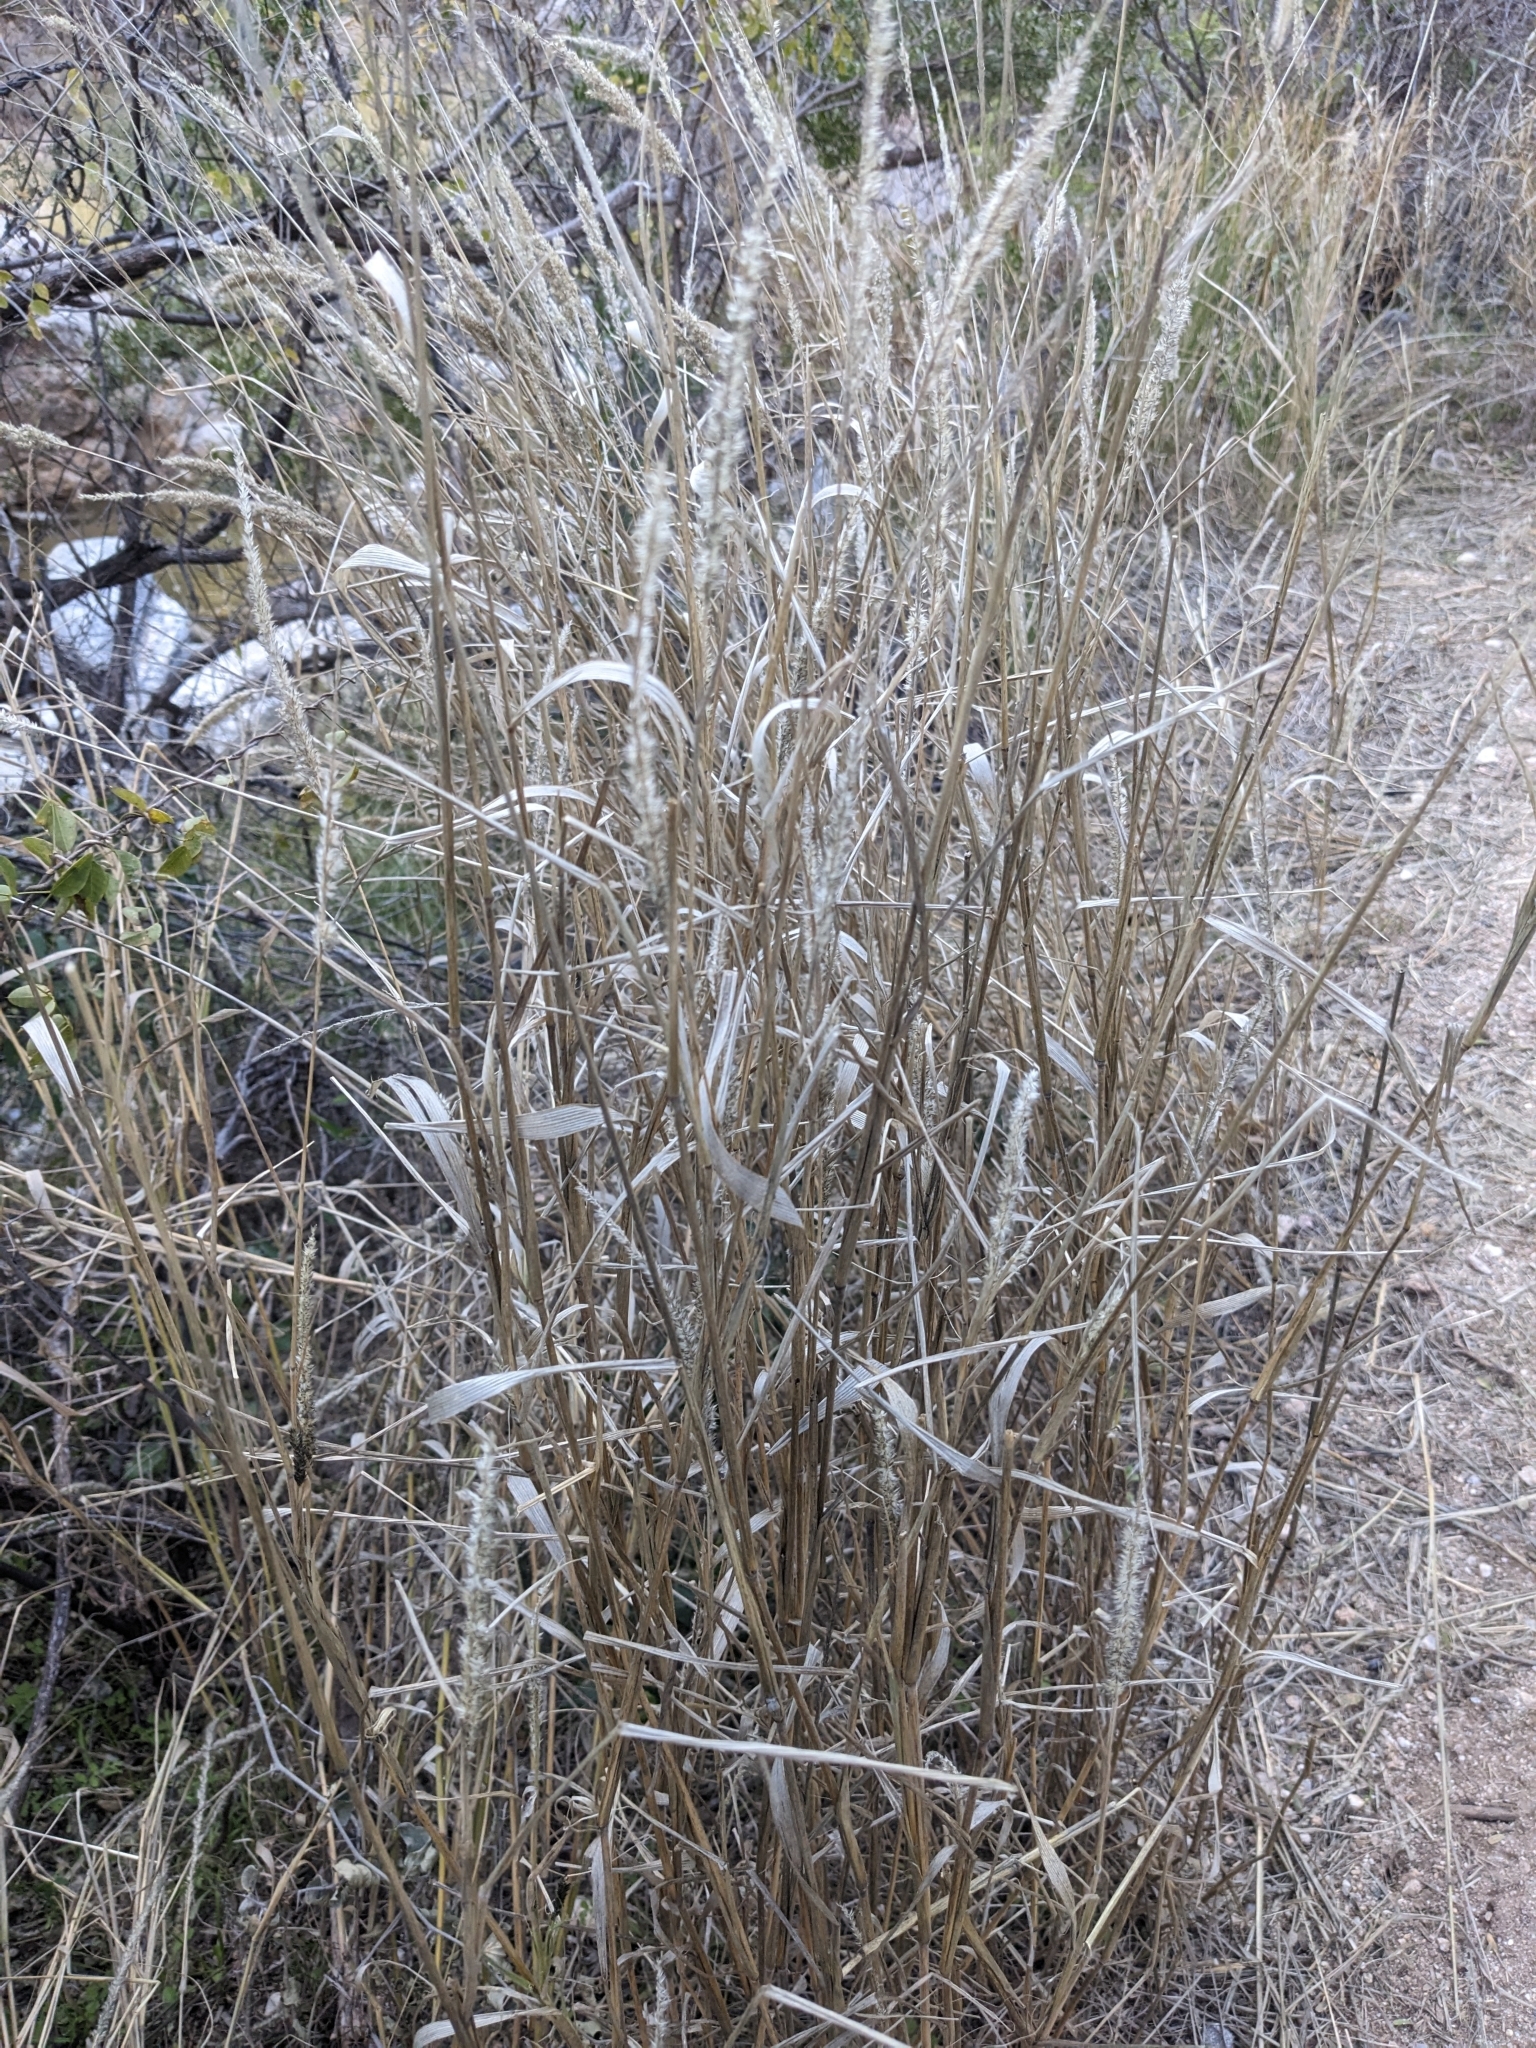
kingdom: Plantae
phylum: Tracheophyta
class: Liliopsida
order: Poales
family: Poaceae
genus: Enneapogon
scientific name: Enneapogon cenchroides
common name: Soft feather pappusgrass
